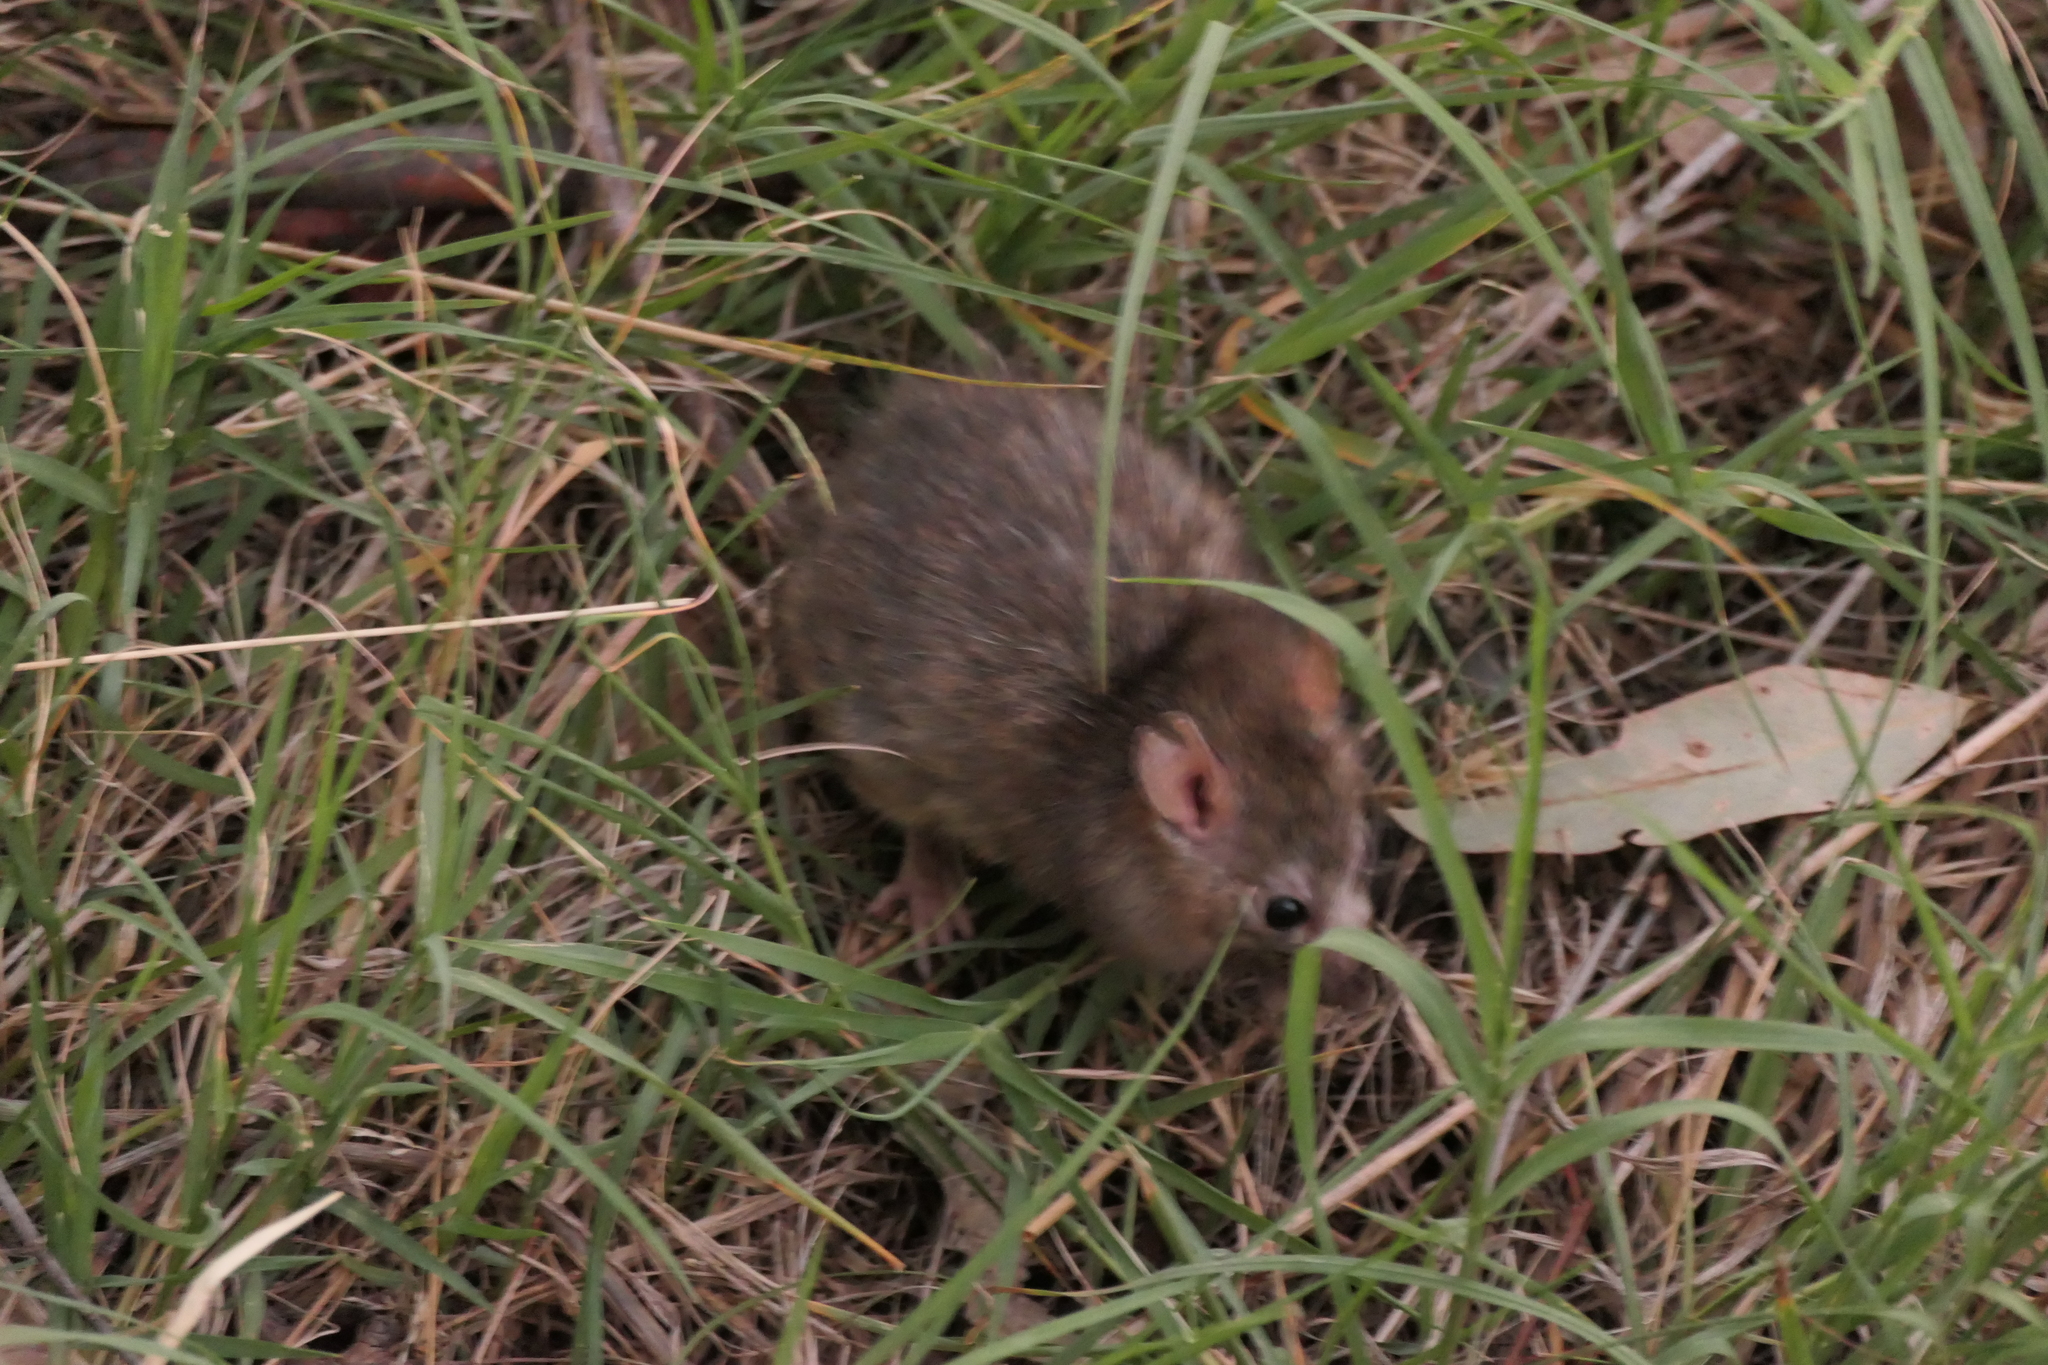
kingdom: Animalia
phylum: Chordata
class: Mammalia
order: Rodentia
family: Muridae
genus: Rattus
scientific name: Rattus norvegicus
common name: Brown rat
